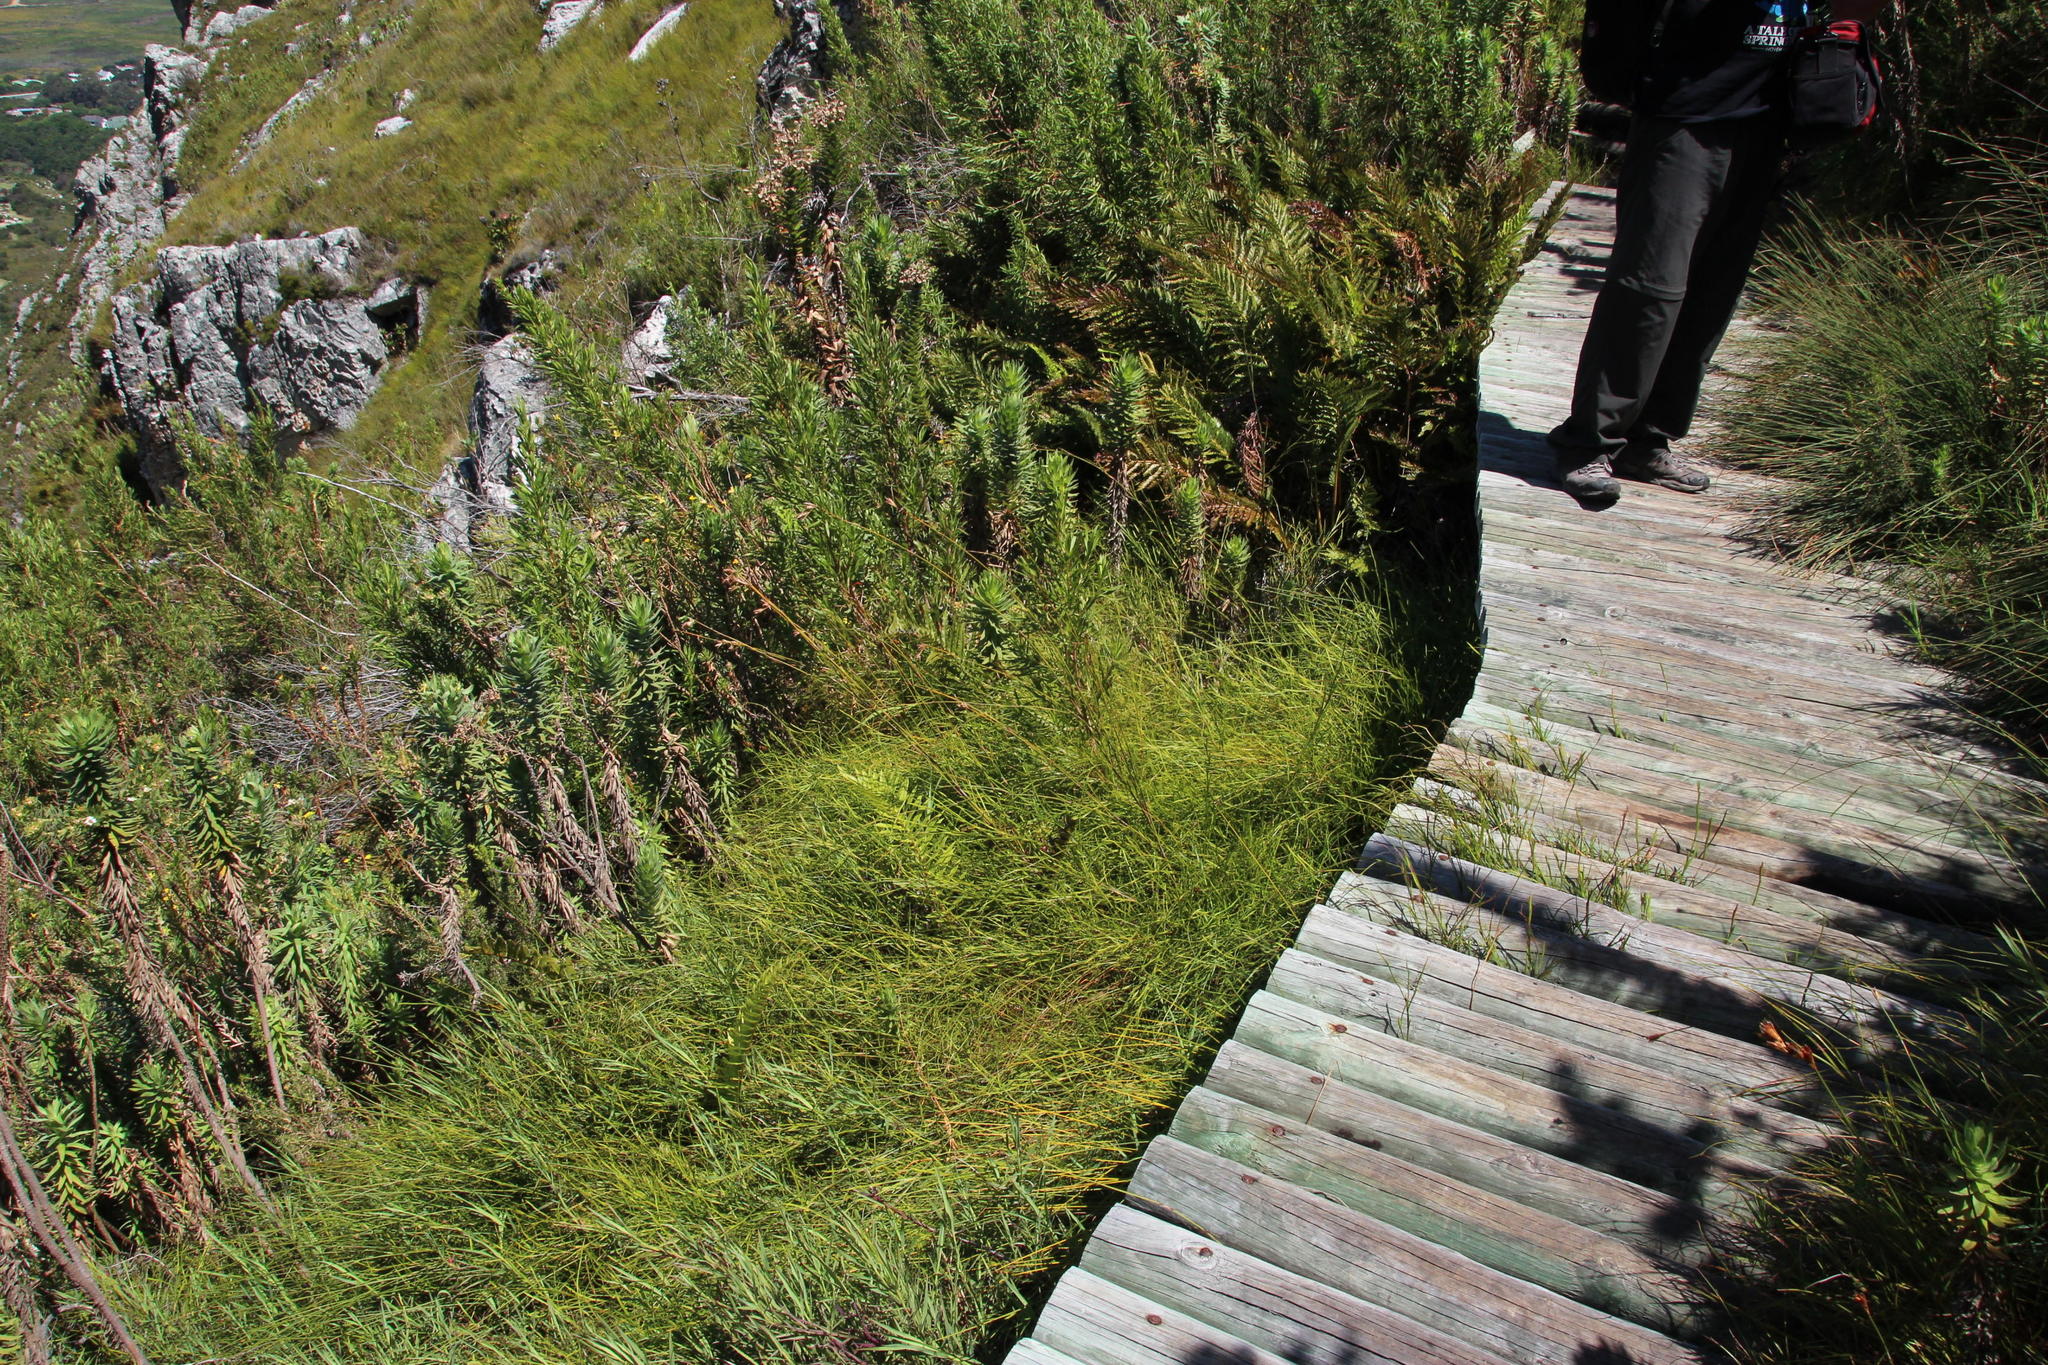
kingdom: Plantae
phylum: Tracheophyta
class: Magnoliopsida
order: Rosales
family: Rosaceae
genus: Cliffortia
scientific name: Cliffortia graminea
